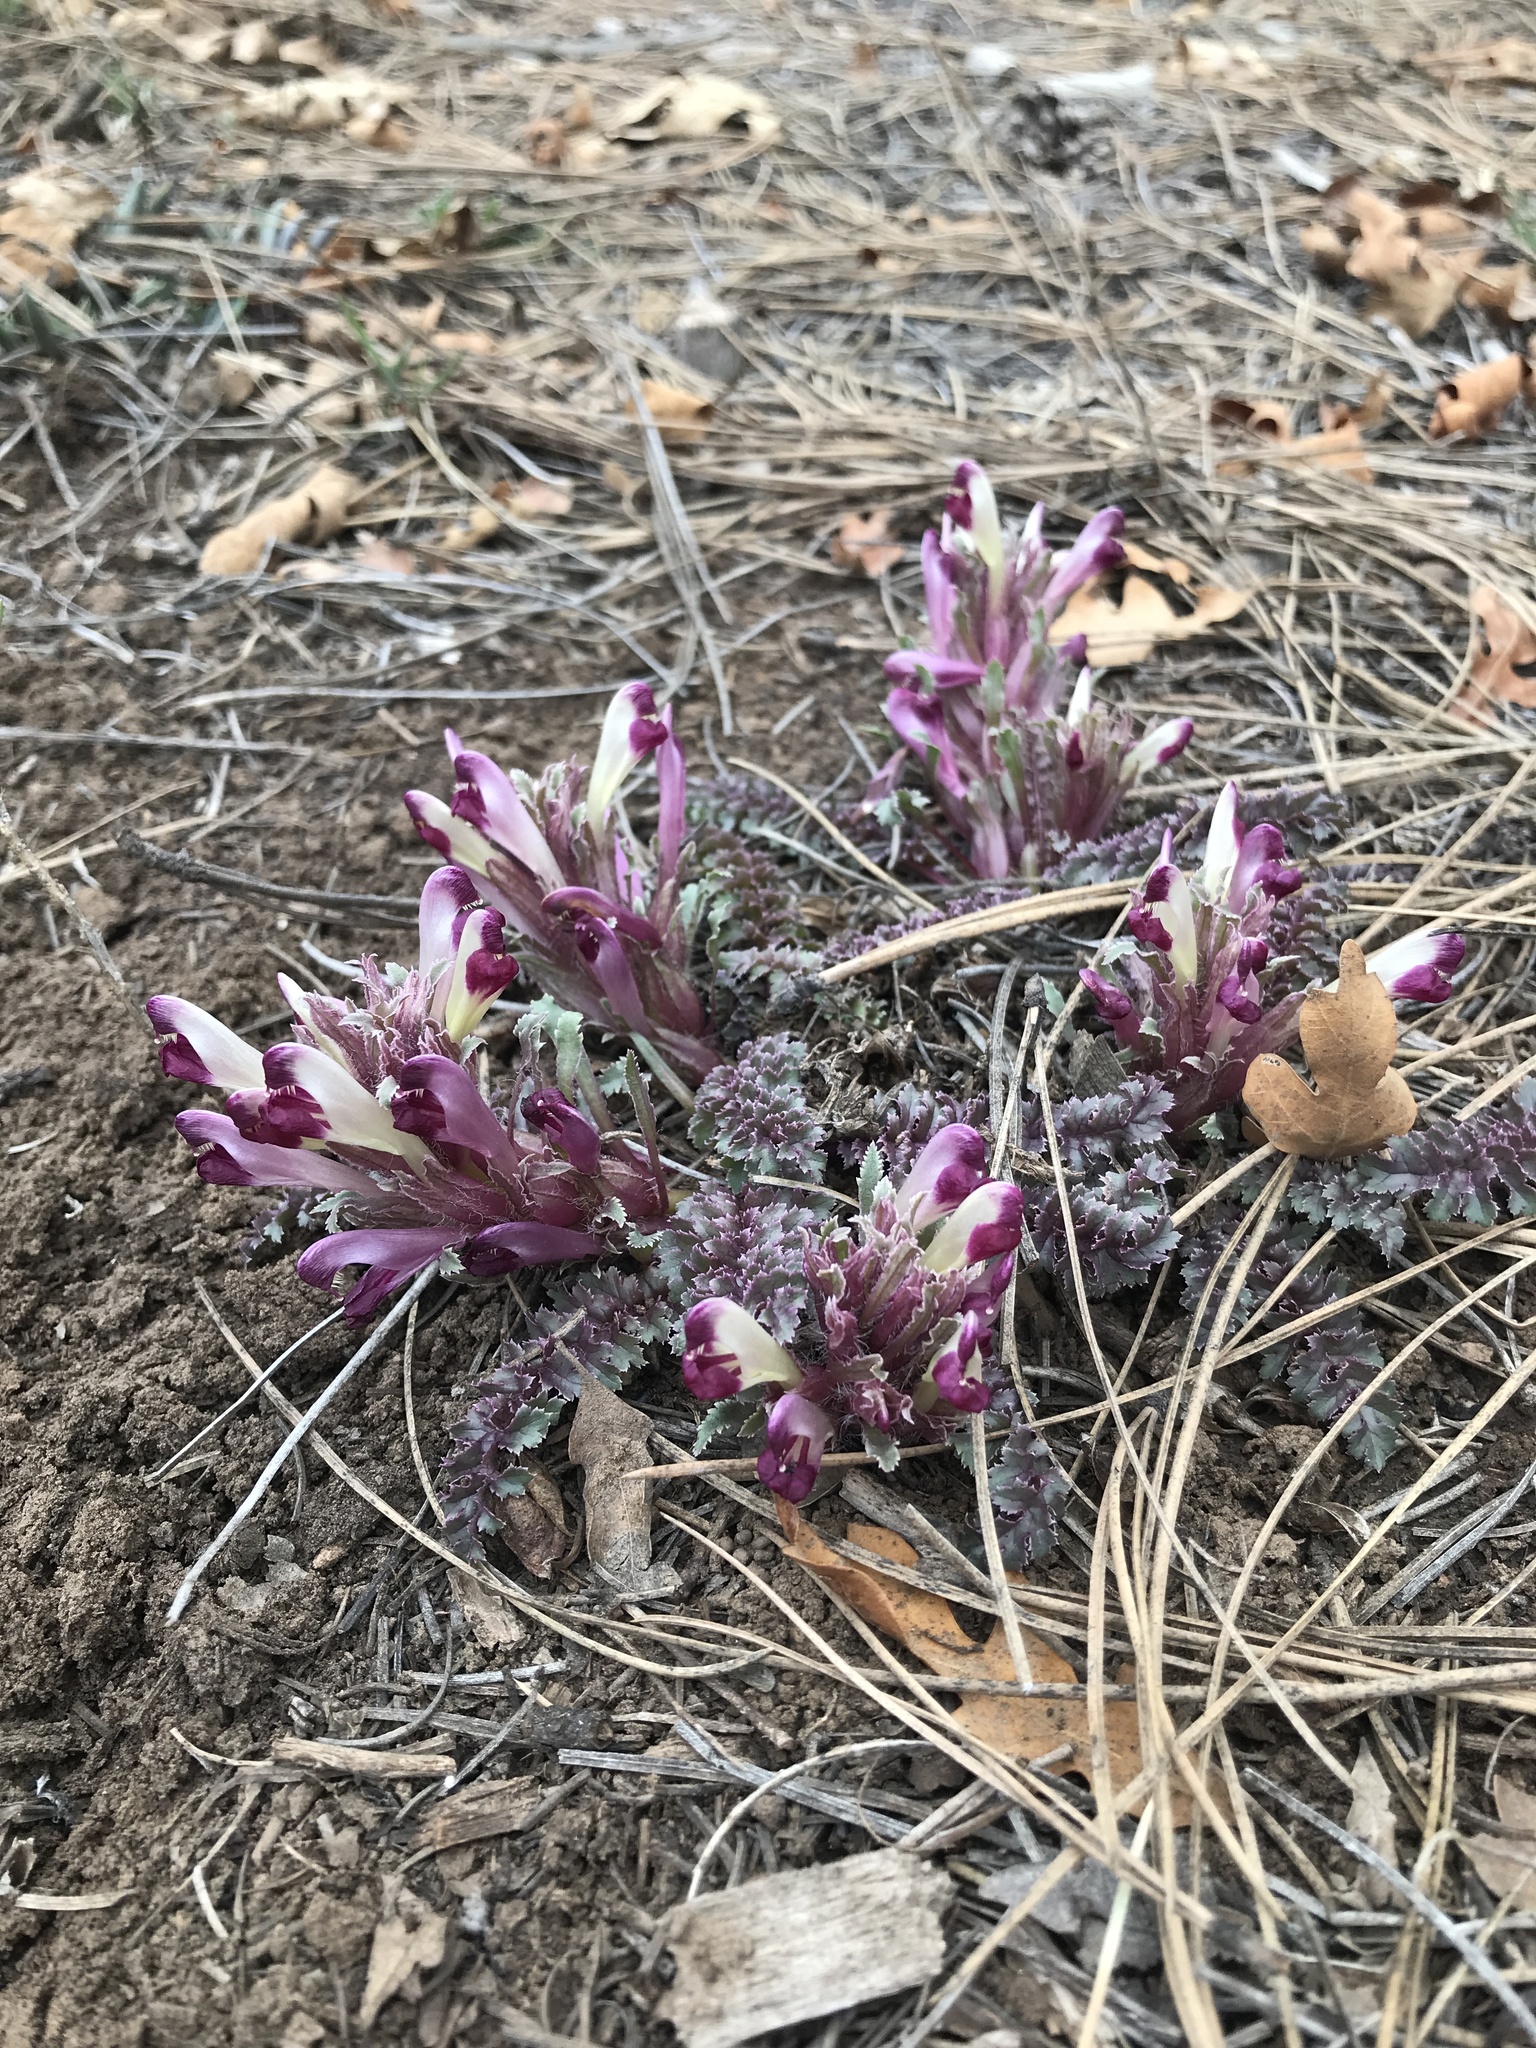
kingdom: Plantae
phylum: Tracheophyta
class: Magnoliopsida
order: Lamiales
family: Orobanchaceae
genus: Pedicularis
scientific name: Pedicularis centranthera
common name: Dwarf lousewort
